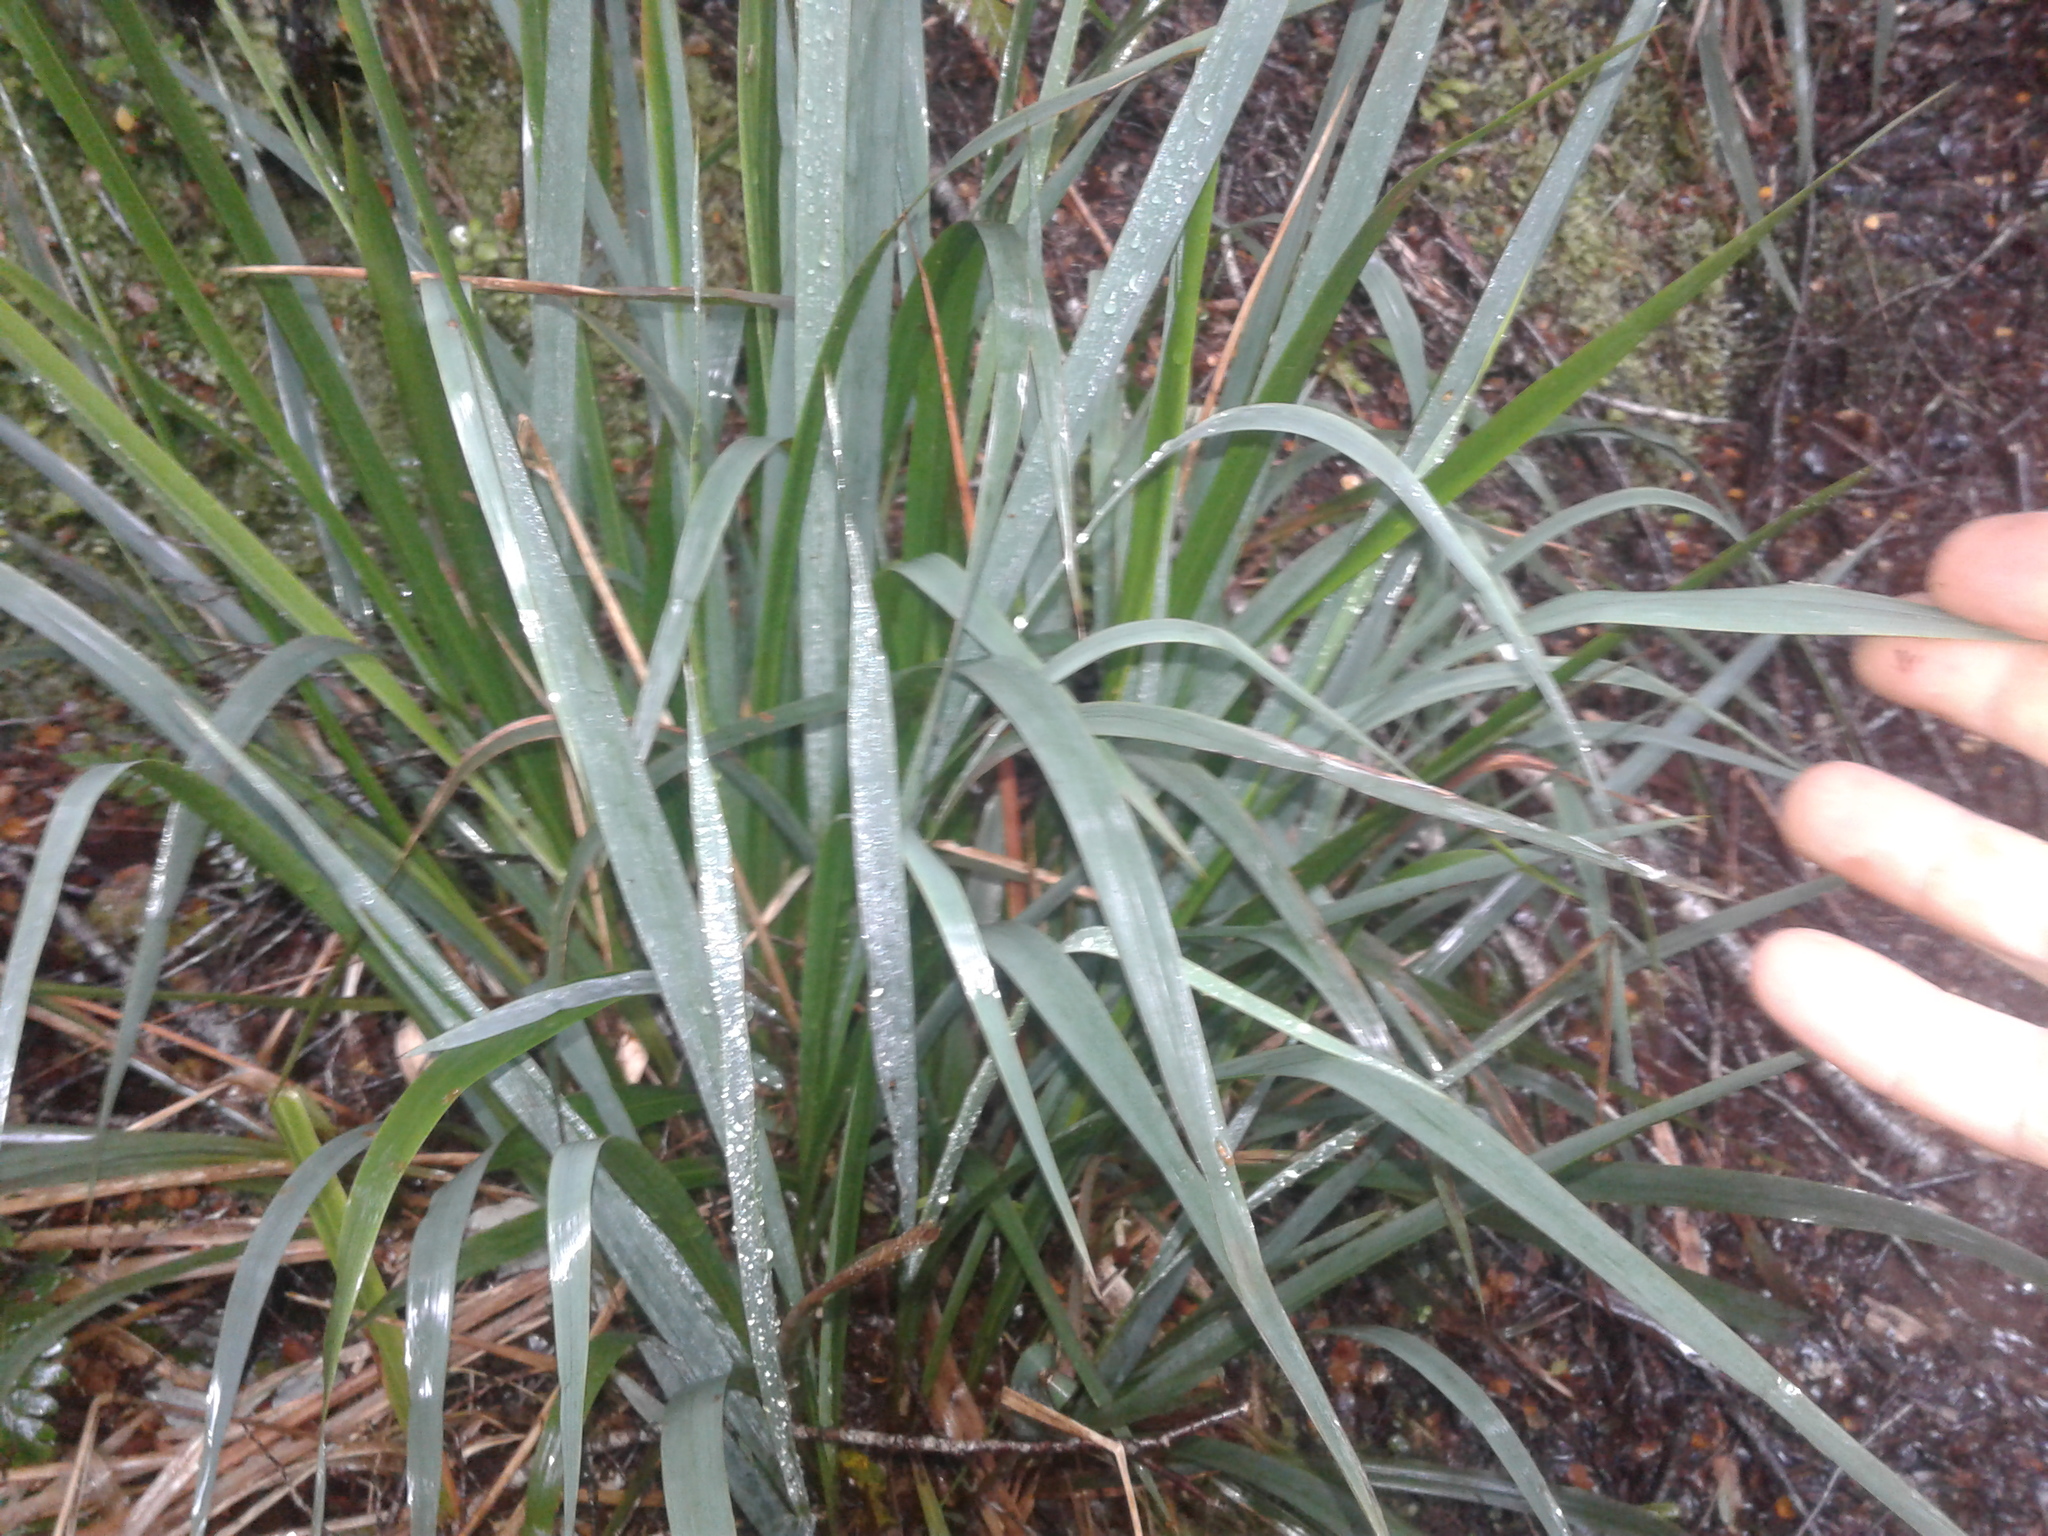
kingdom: Plantae
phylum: Tracheophyta
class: Liliopsida
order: Poales
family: Poaceae
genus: Ehrharta
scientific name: Ehrharta diplax
